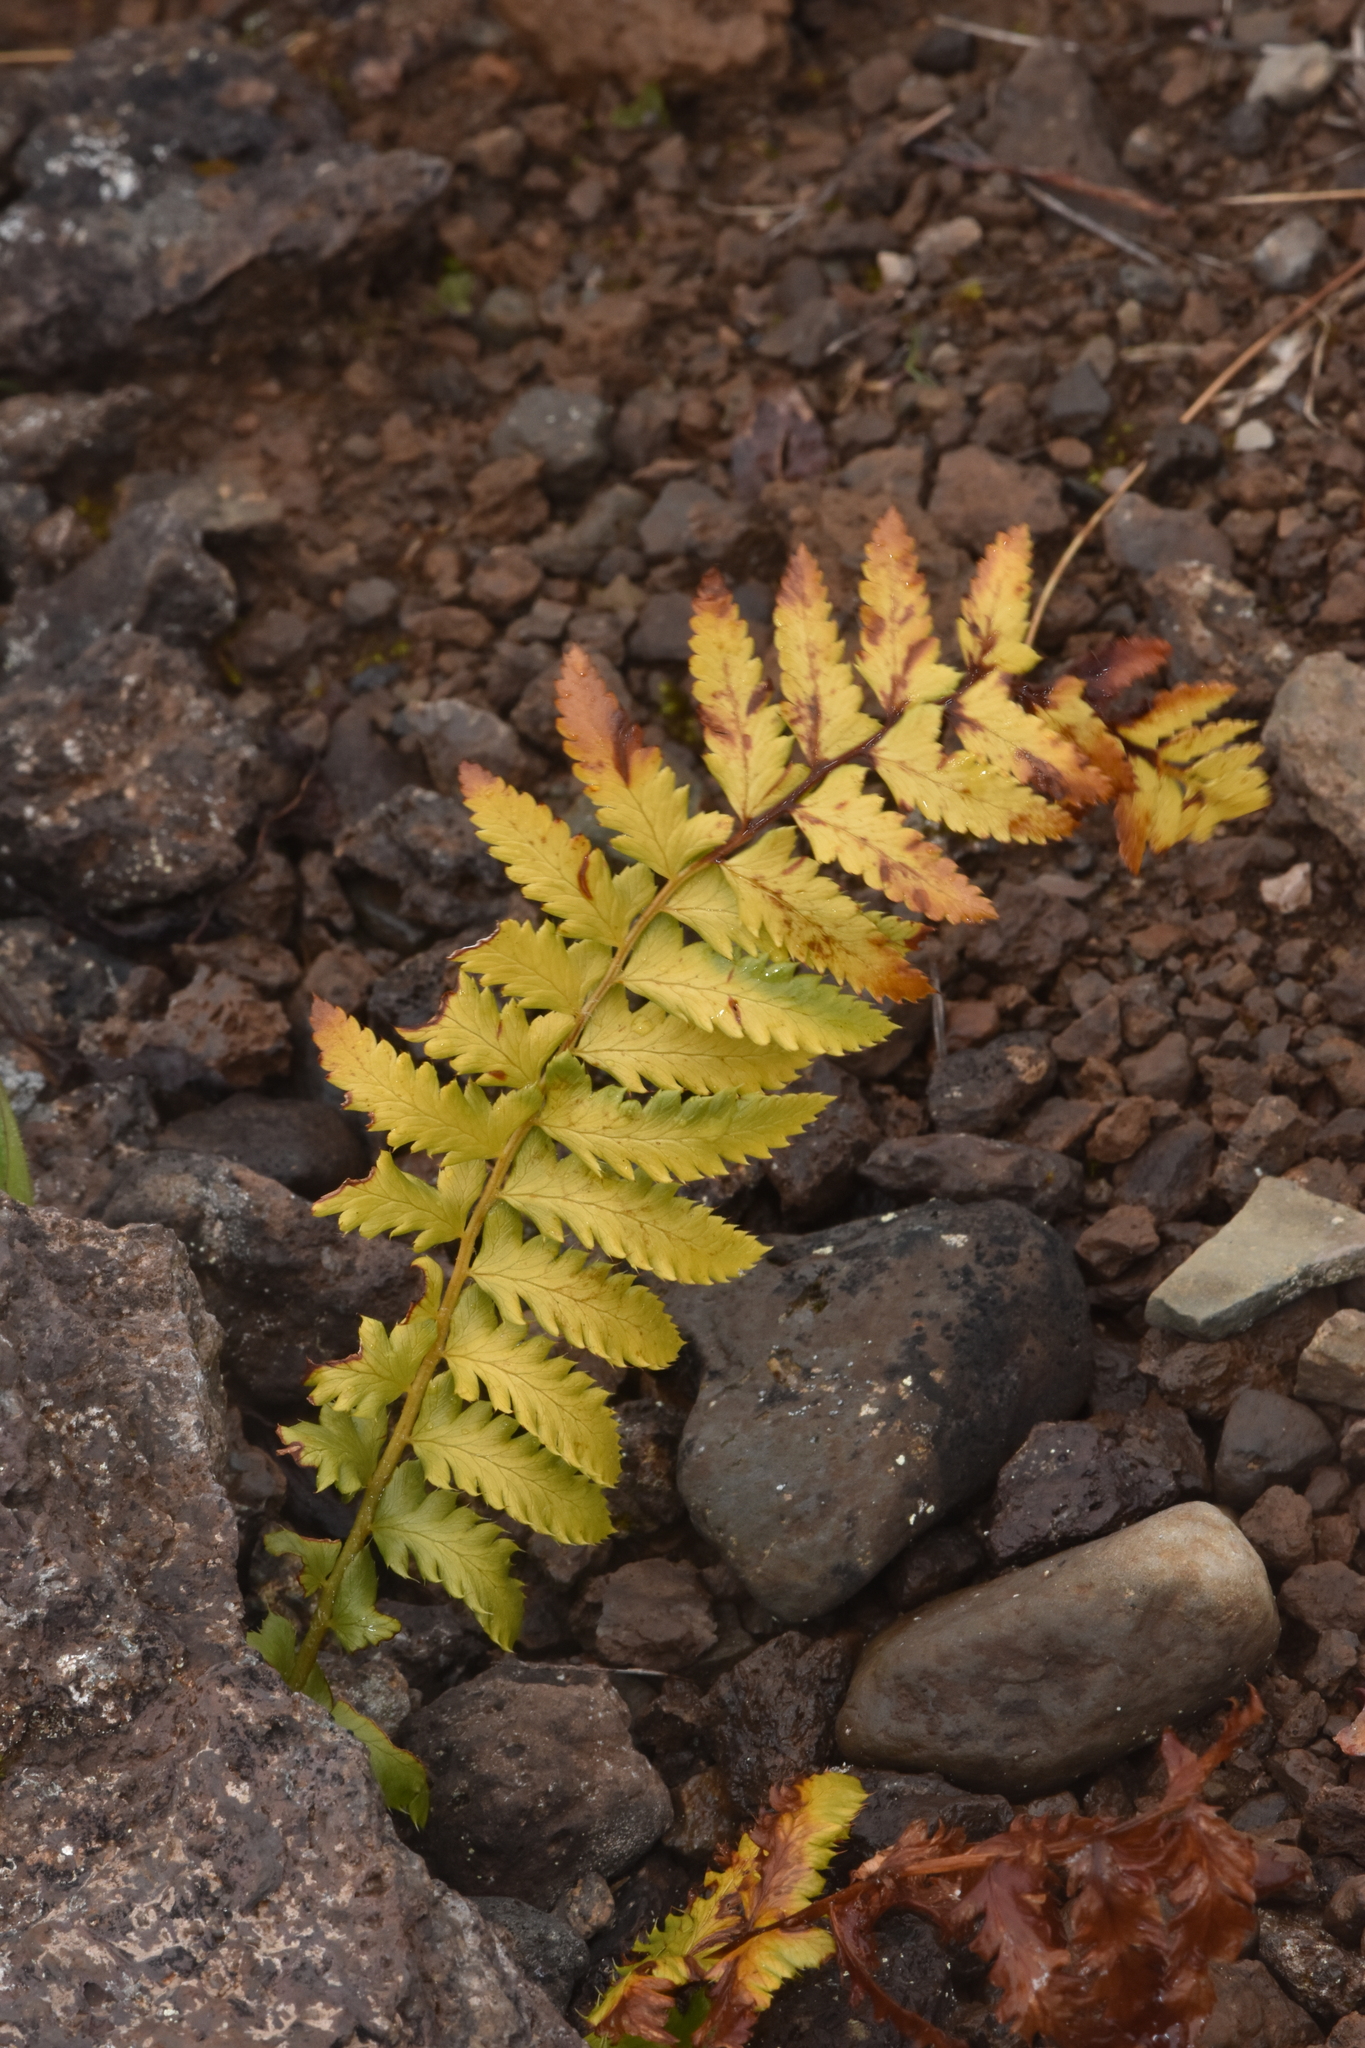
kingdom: Plantae
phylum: Tracheophyta
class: Polypodiopsida
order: Polypodiales
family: Dryopteridaceae
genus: Polystichum
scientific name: Polystichum andersonii
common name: Anderson's holly fern
